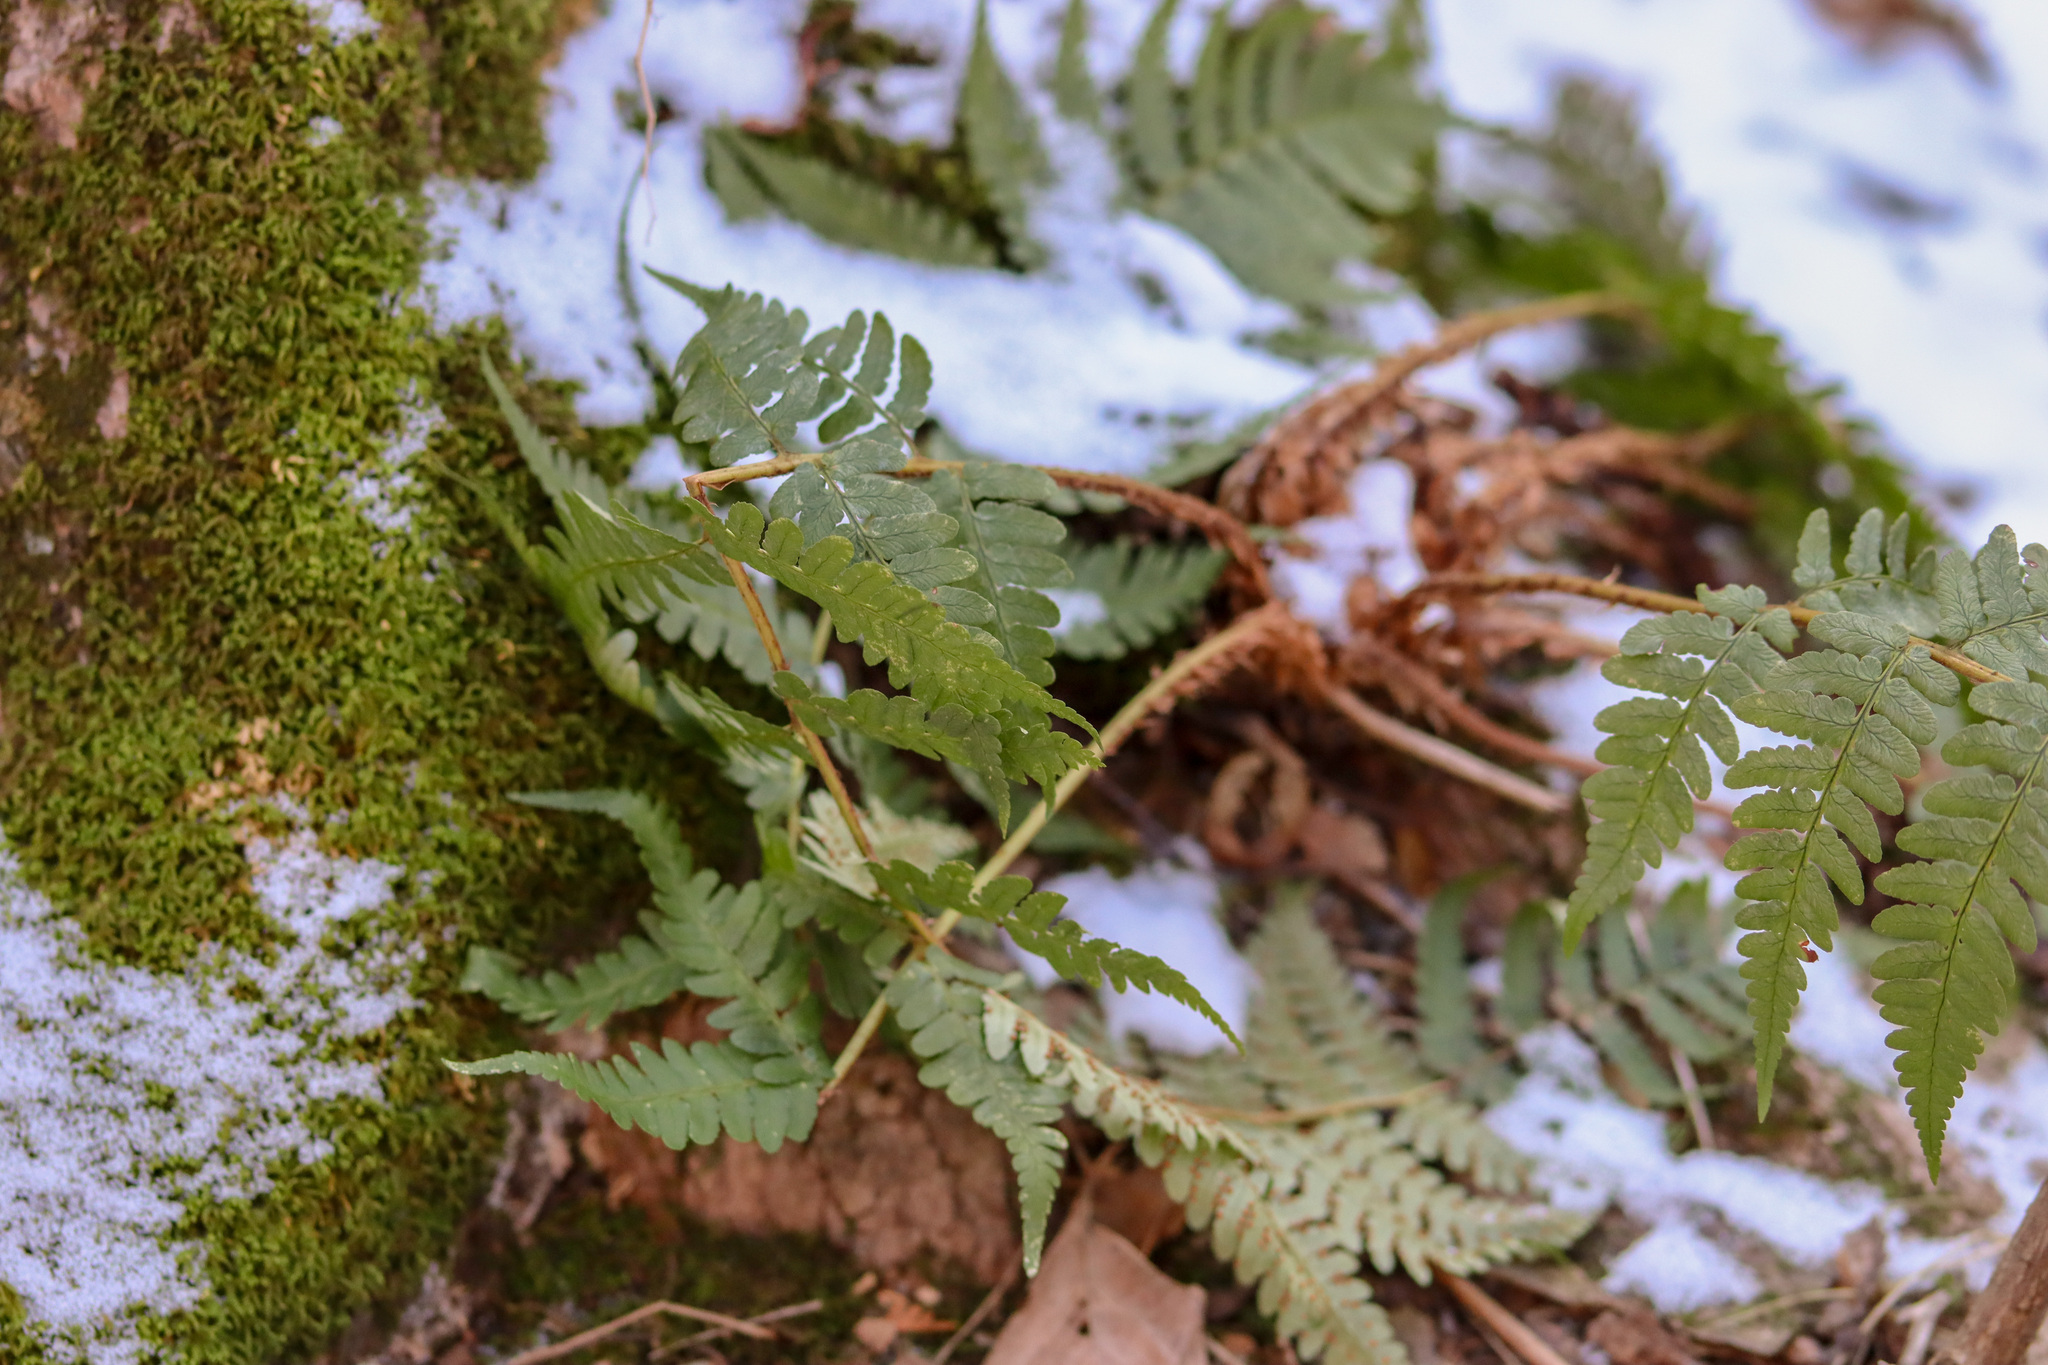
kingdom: Plantae
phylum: Tracheophyta
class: Polypodiopsida
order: Polypodiales
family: Dryopteridaceae
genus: Dryopteris
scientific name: Dryopteris marginalis
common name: Marginal wood fern
